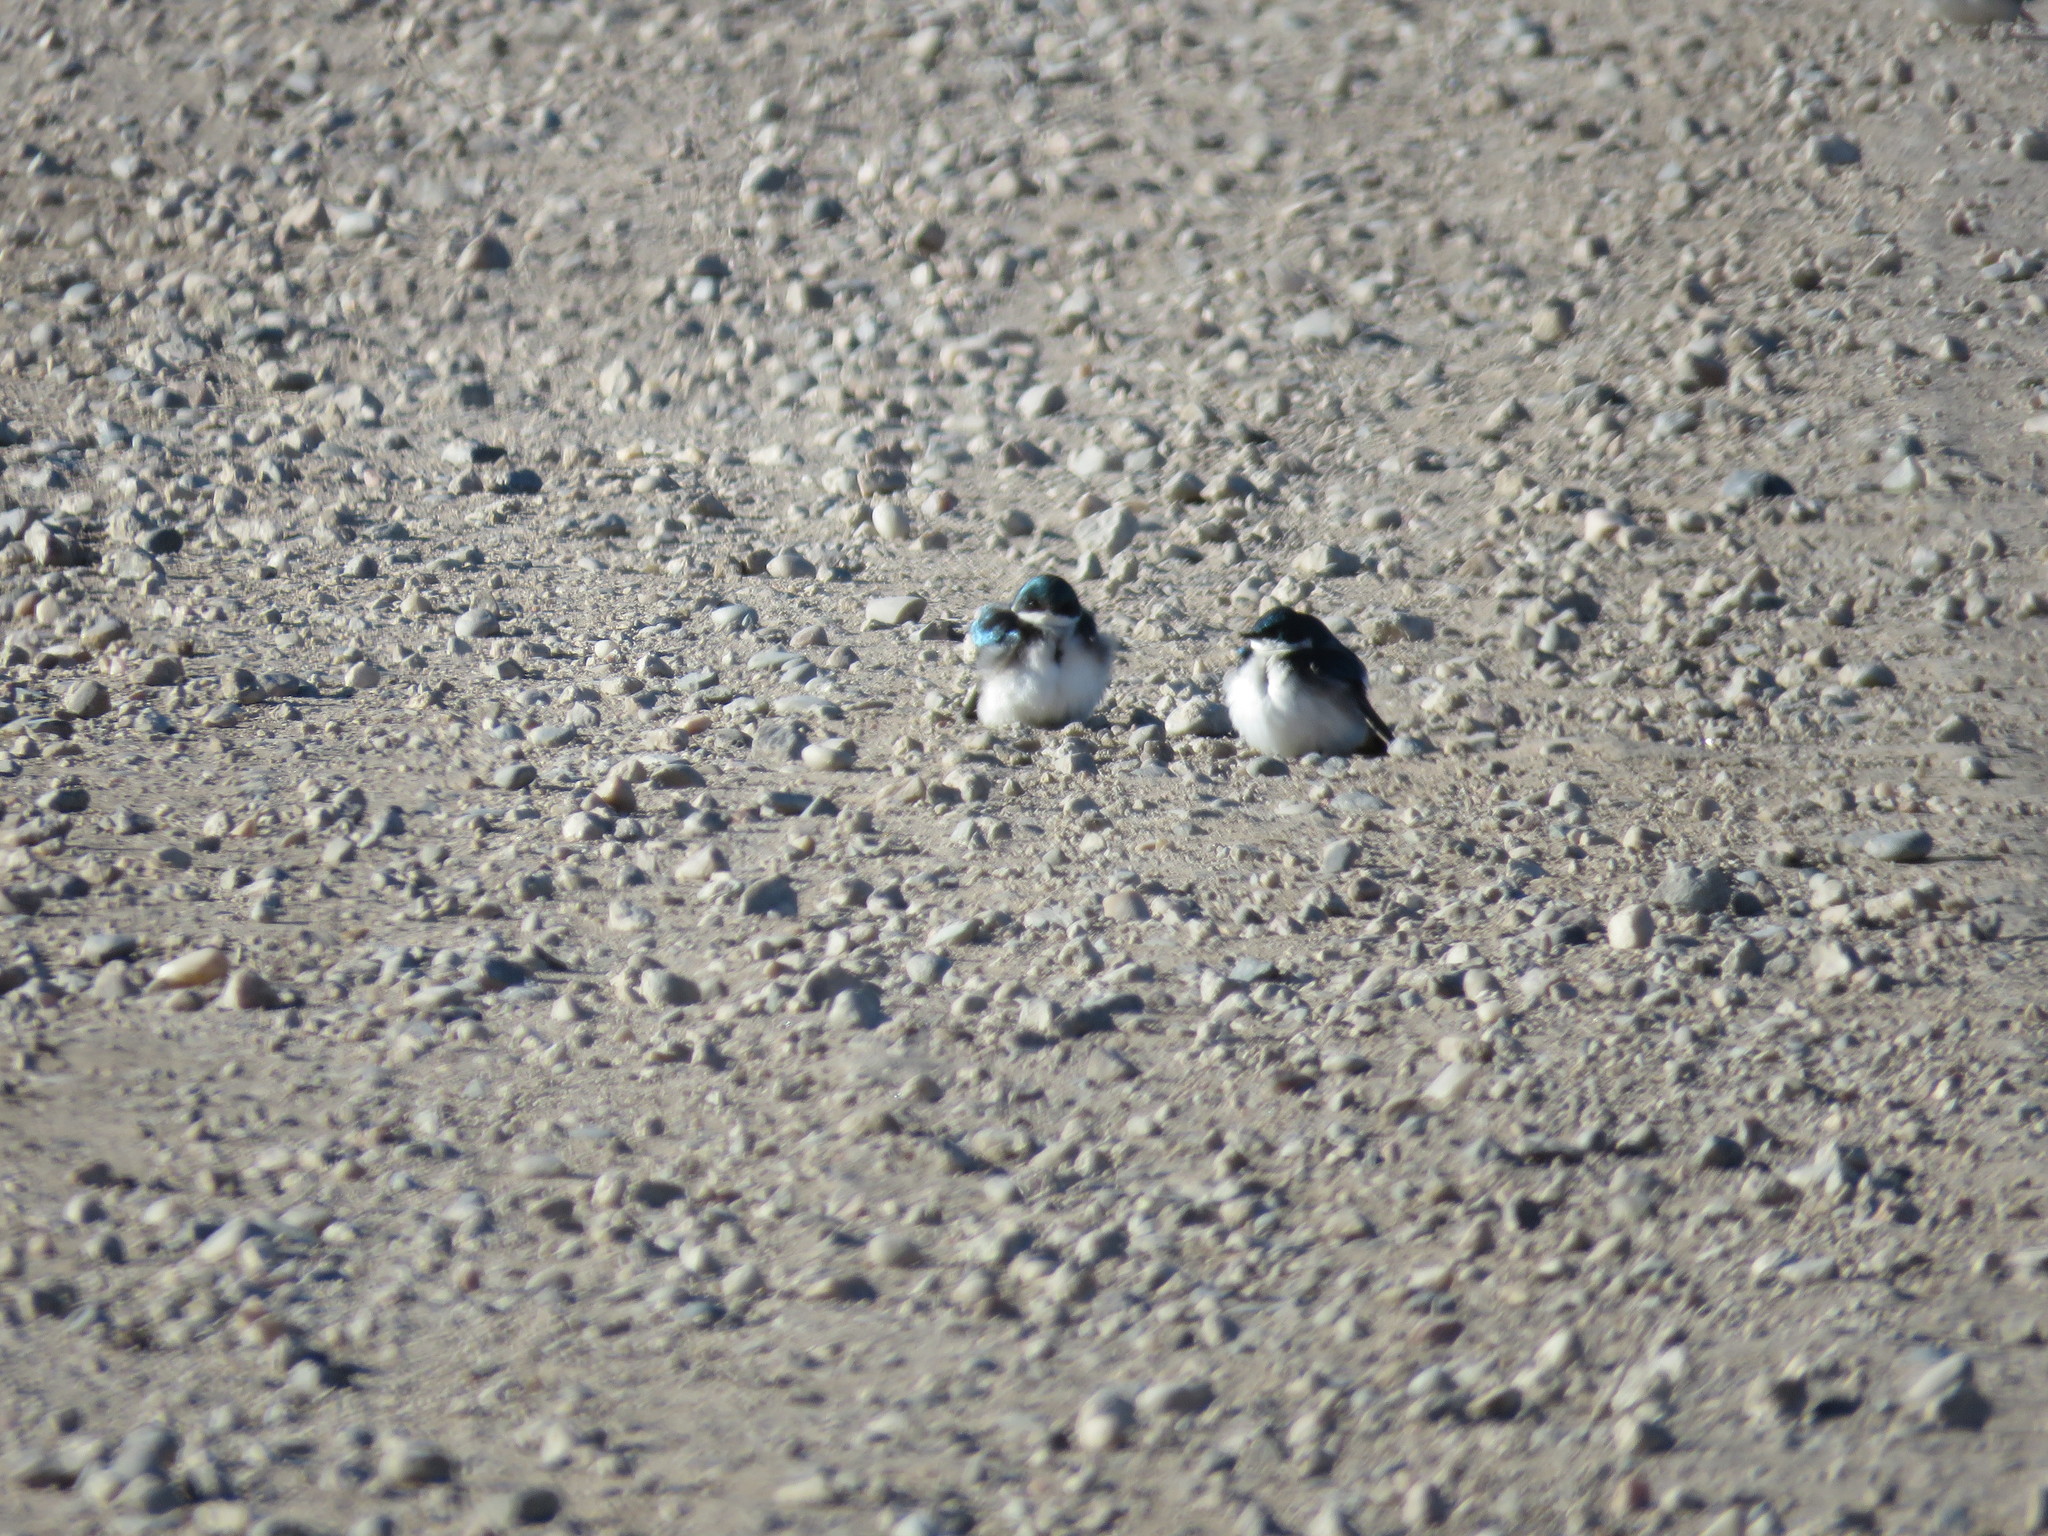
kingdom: Animalia
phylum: Chordata
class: Aves
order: Passeriformes
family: Hirundinidae
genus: Tachycineta
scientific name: Tachycineta bicolor
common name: Tree swallow
